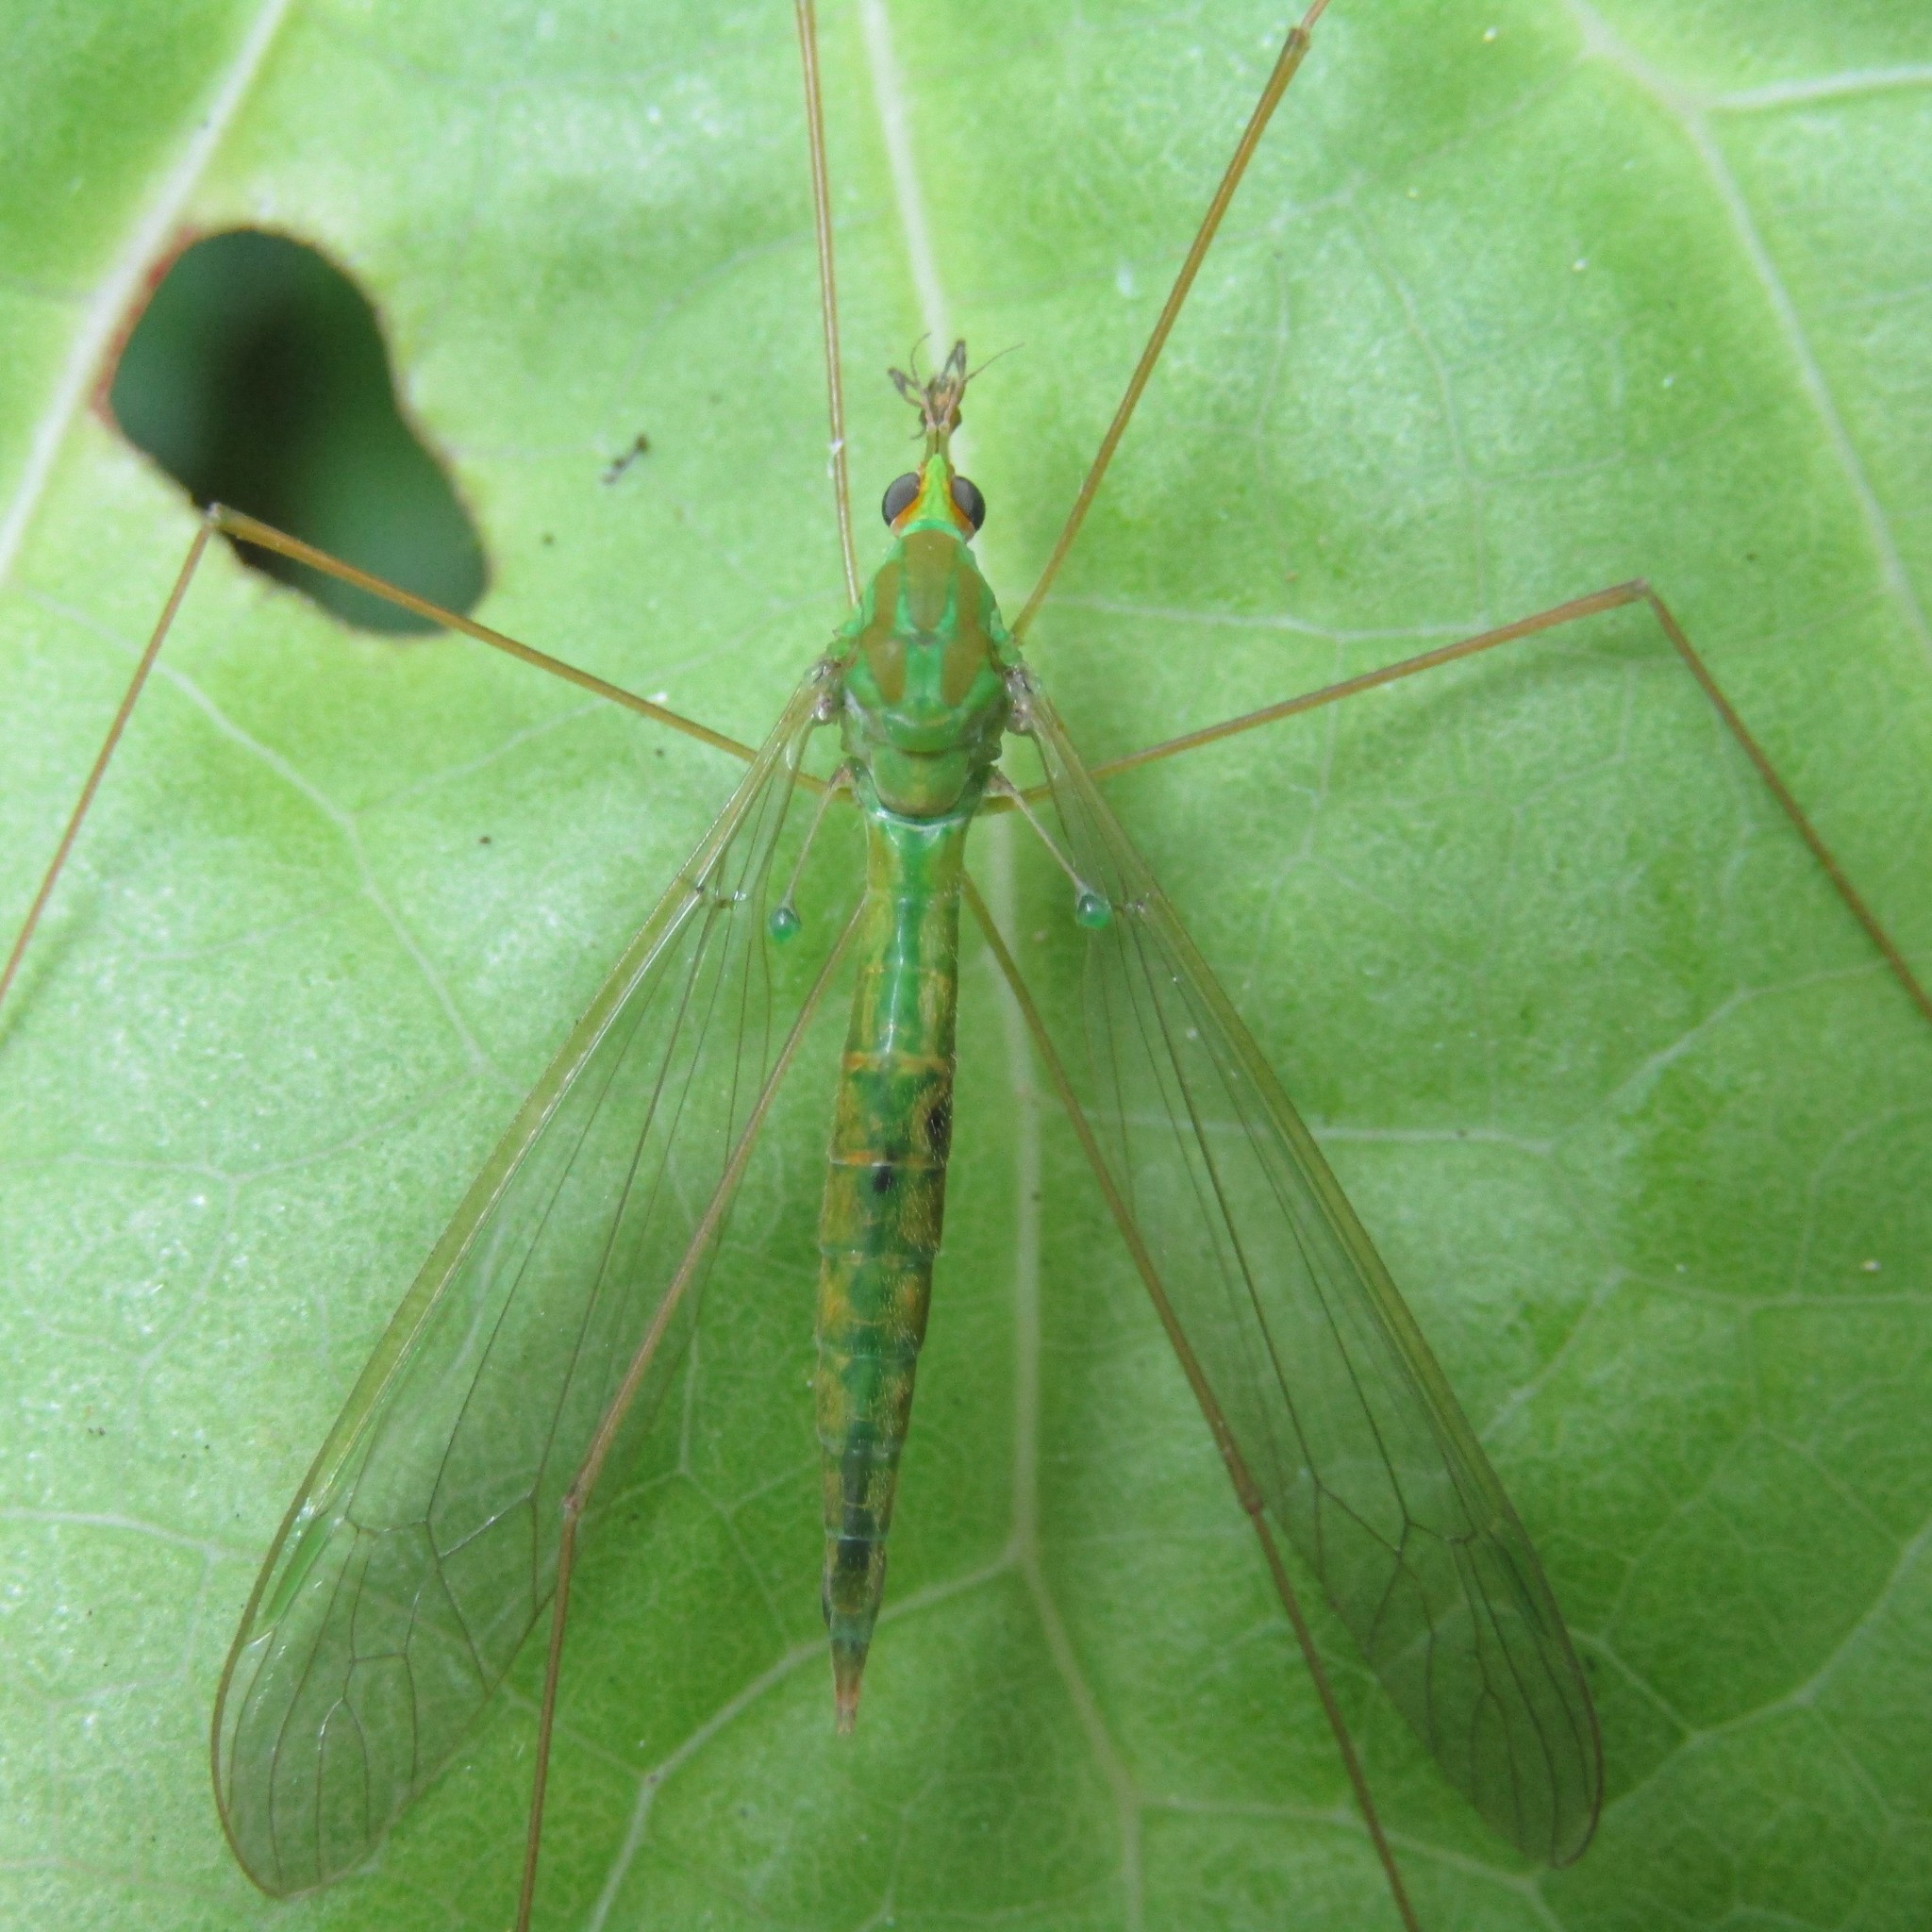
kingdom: Animalia
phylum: Arthropoda
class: Insecta
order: Diptera
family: Tipulidae
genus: Leptotarsus
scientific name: Leptotarsus virescens
